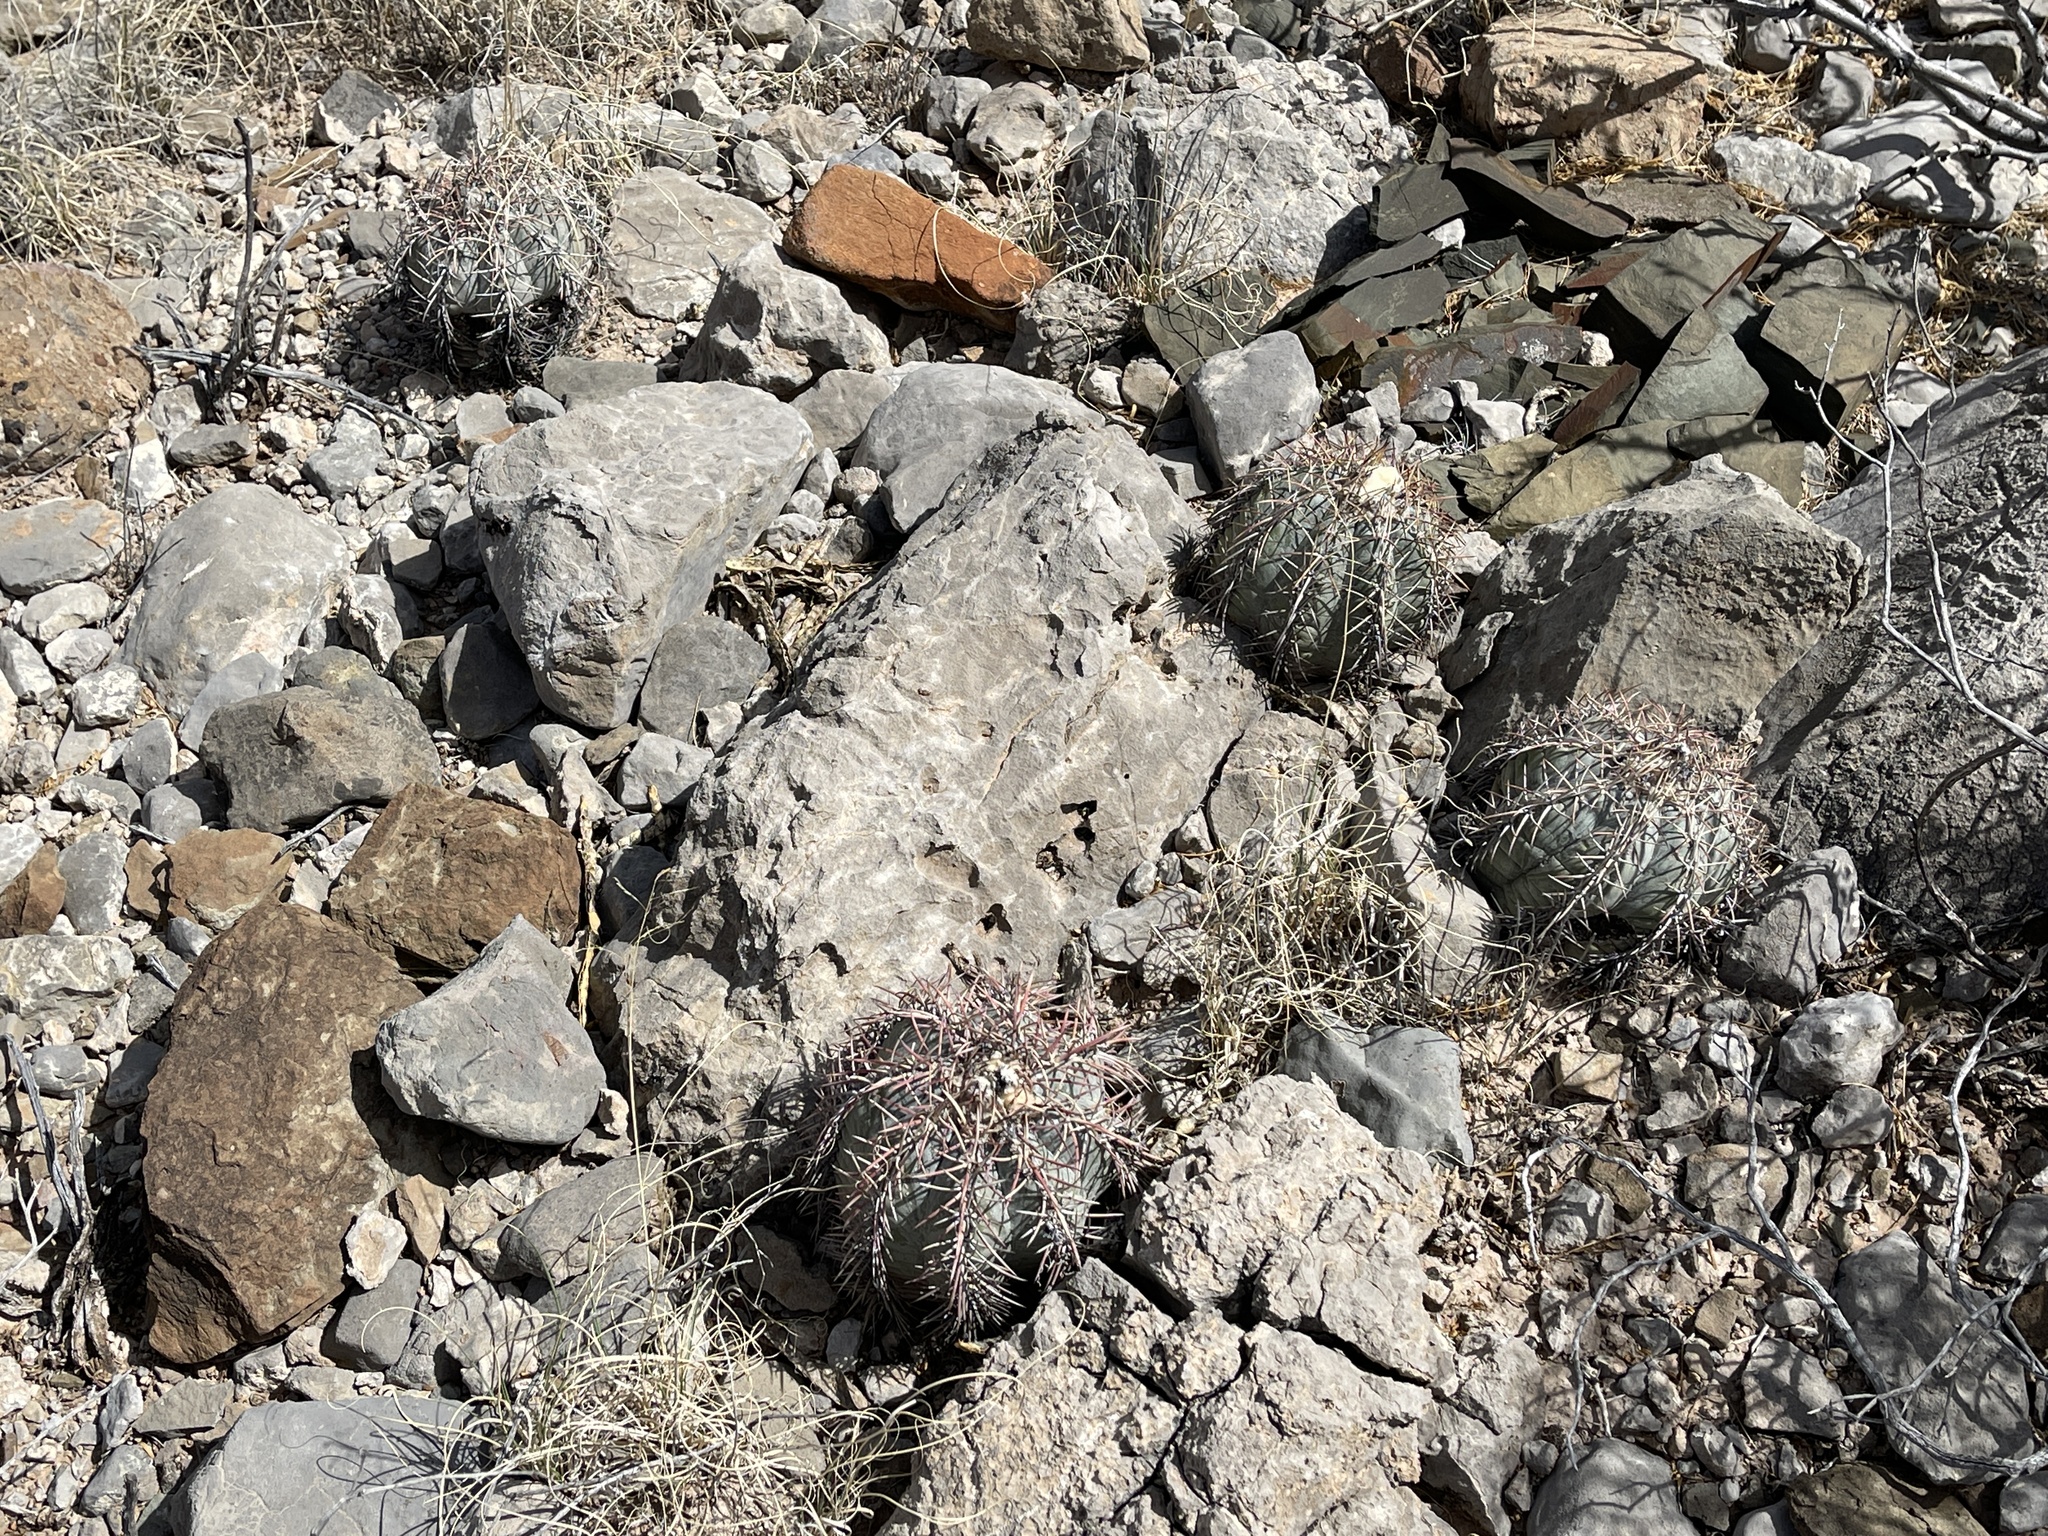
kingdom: Plantae
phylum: Tracheophyta
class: Magnoliopsida
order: Caryophyllales
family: Cactaceae
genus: Echinocactus
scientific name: Echinocactus horizonthalonius
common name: Devilshead
